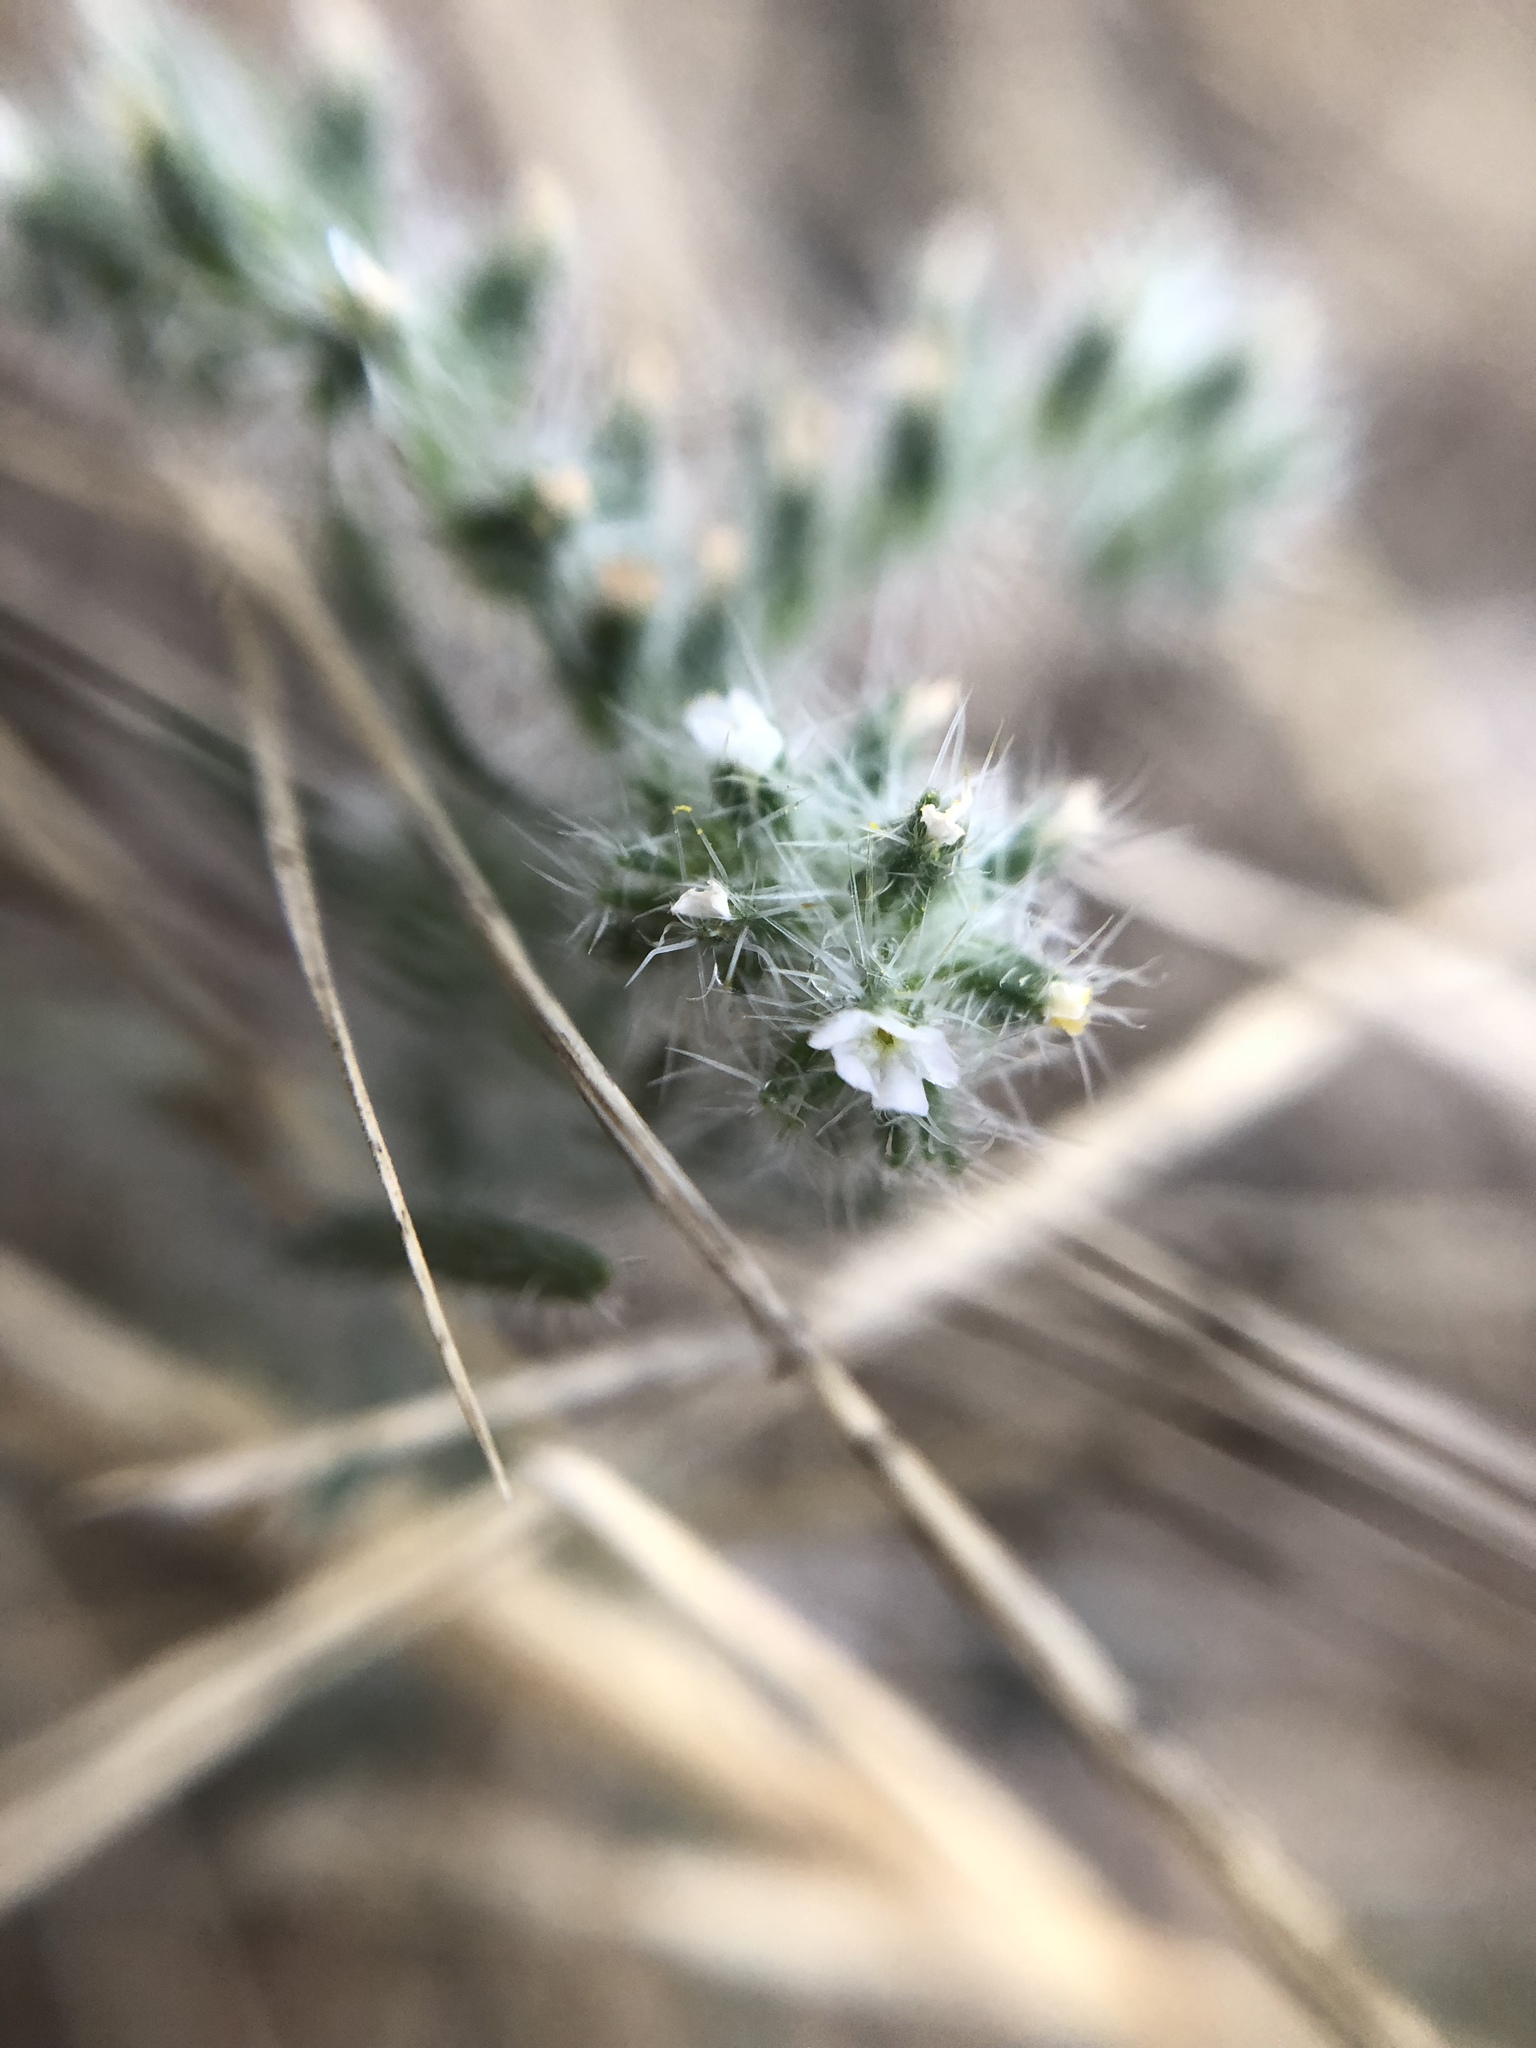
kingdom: Plantae
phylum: Tracheophyta
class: Magnoliopsida
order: Boraginales
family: Boraginaceae
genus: Cryptantha
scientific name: Cryptantha barbigera
